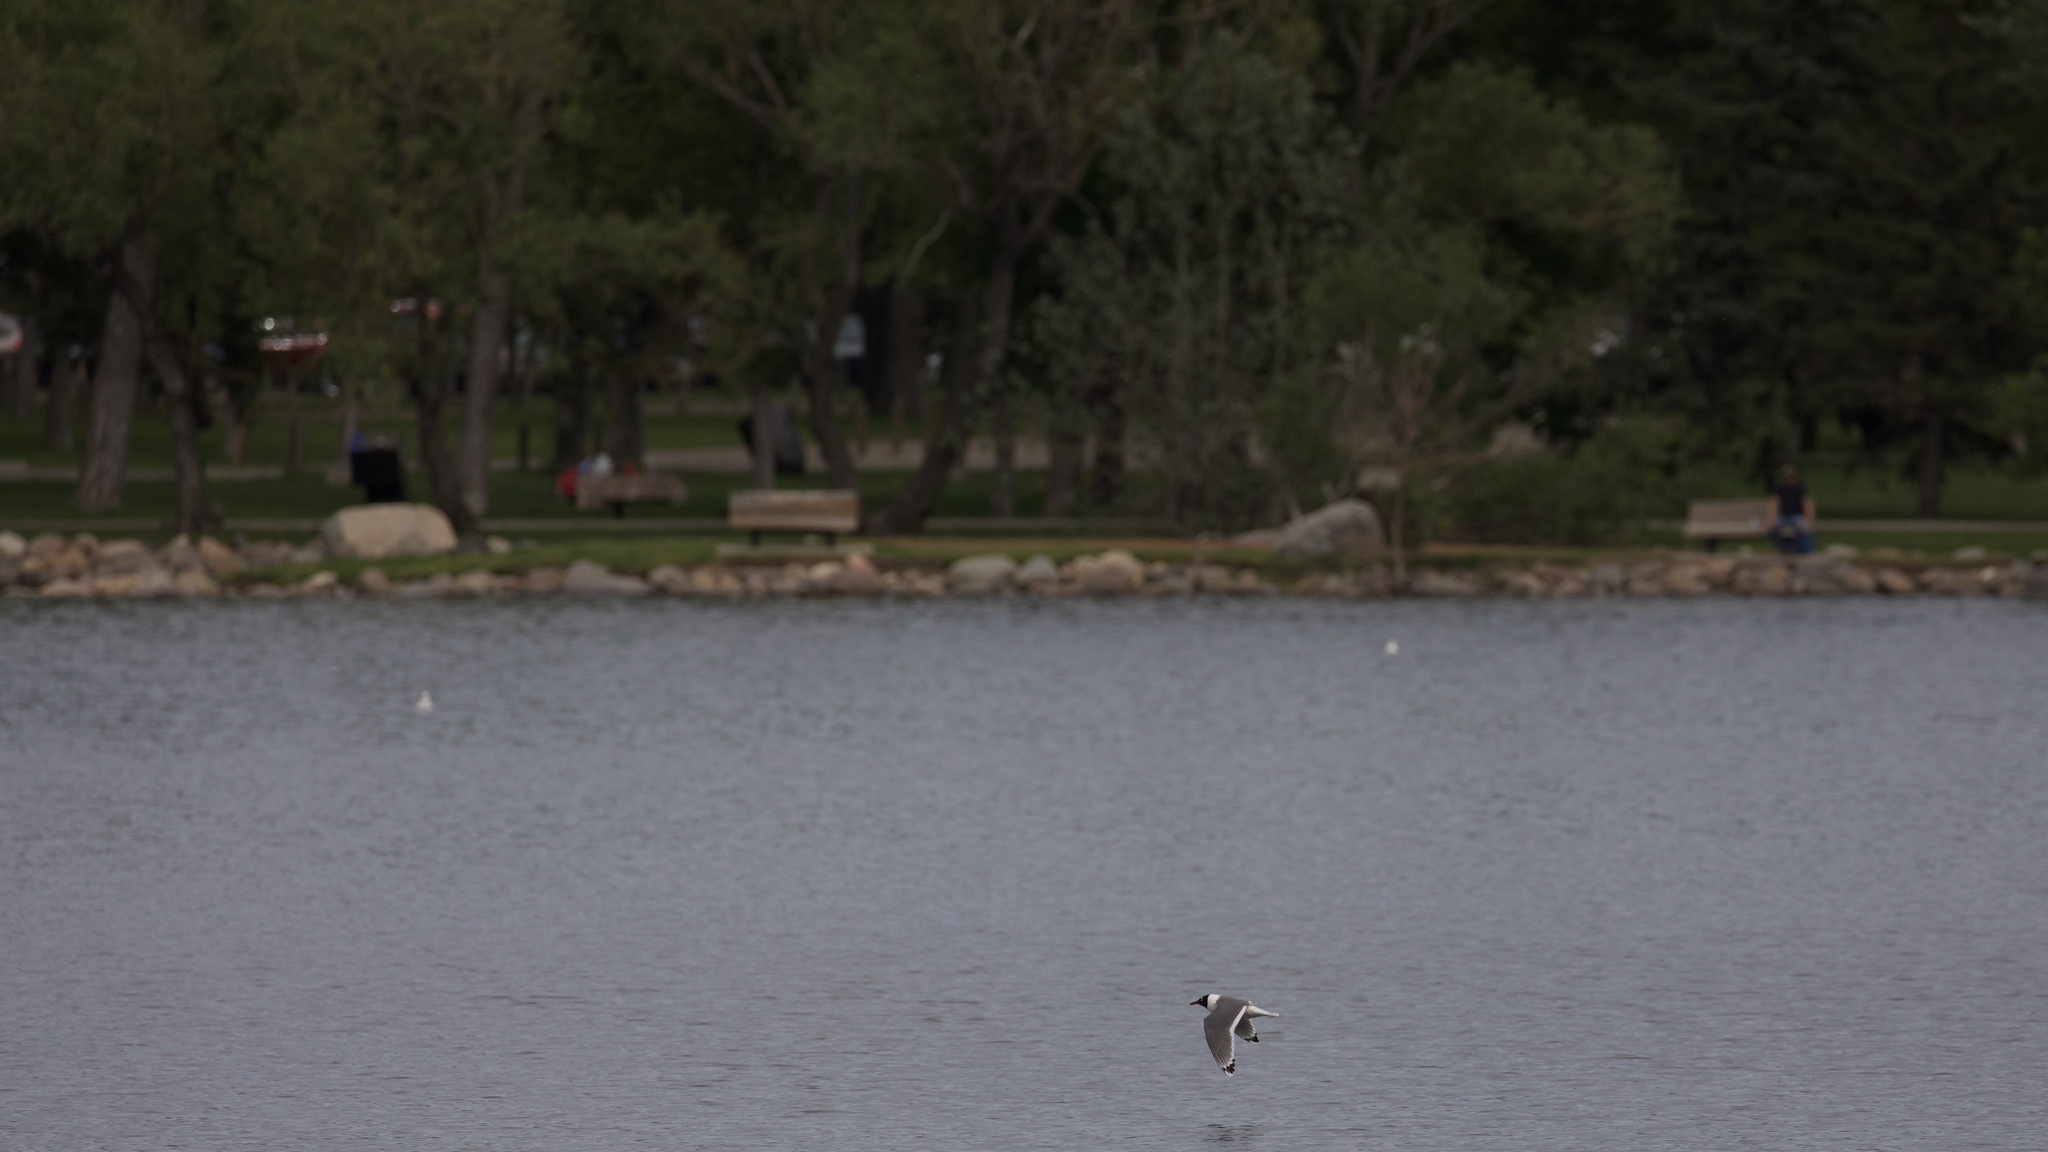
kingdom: Animalia
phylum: Chordata
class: Aves
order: Charadriiformes
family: Laridae
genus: Leucophaeus
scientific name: Leucophaeus pipixcan
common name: Franklin's gull
